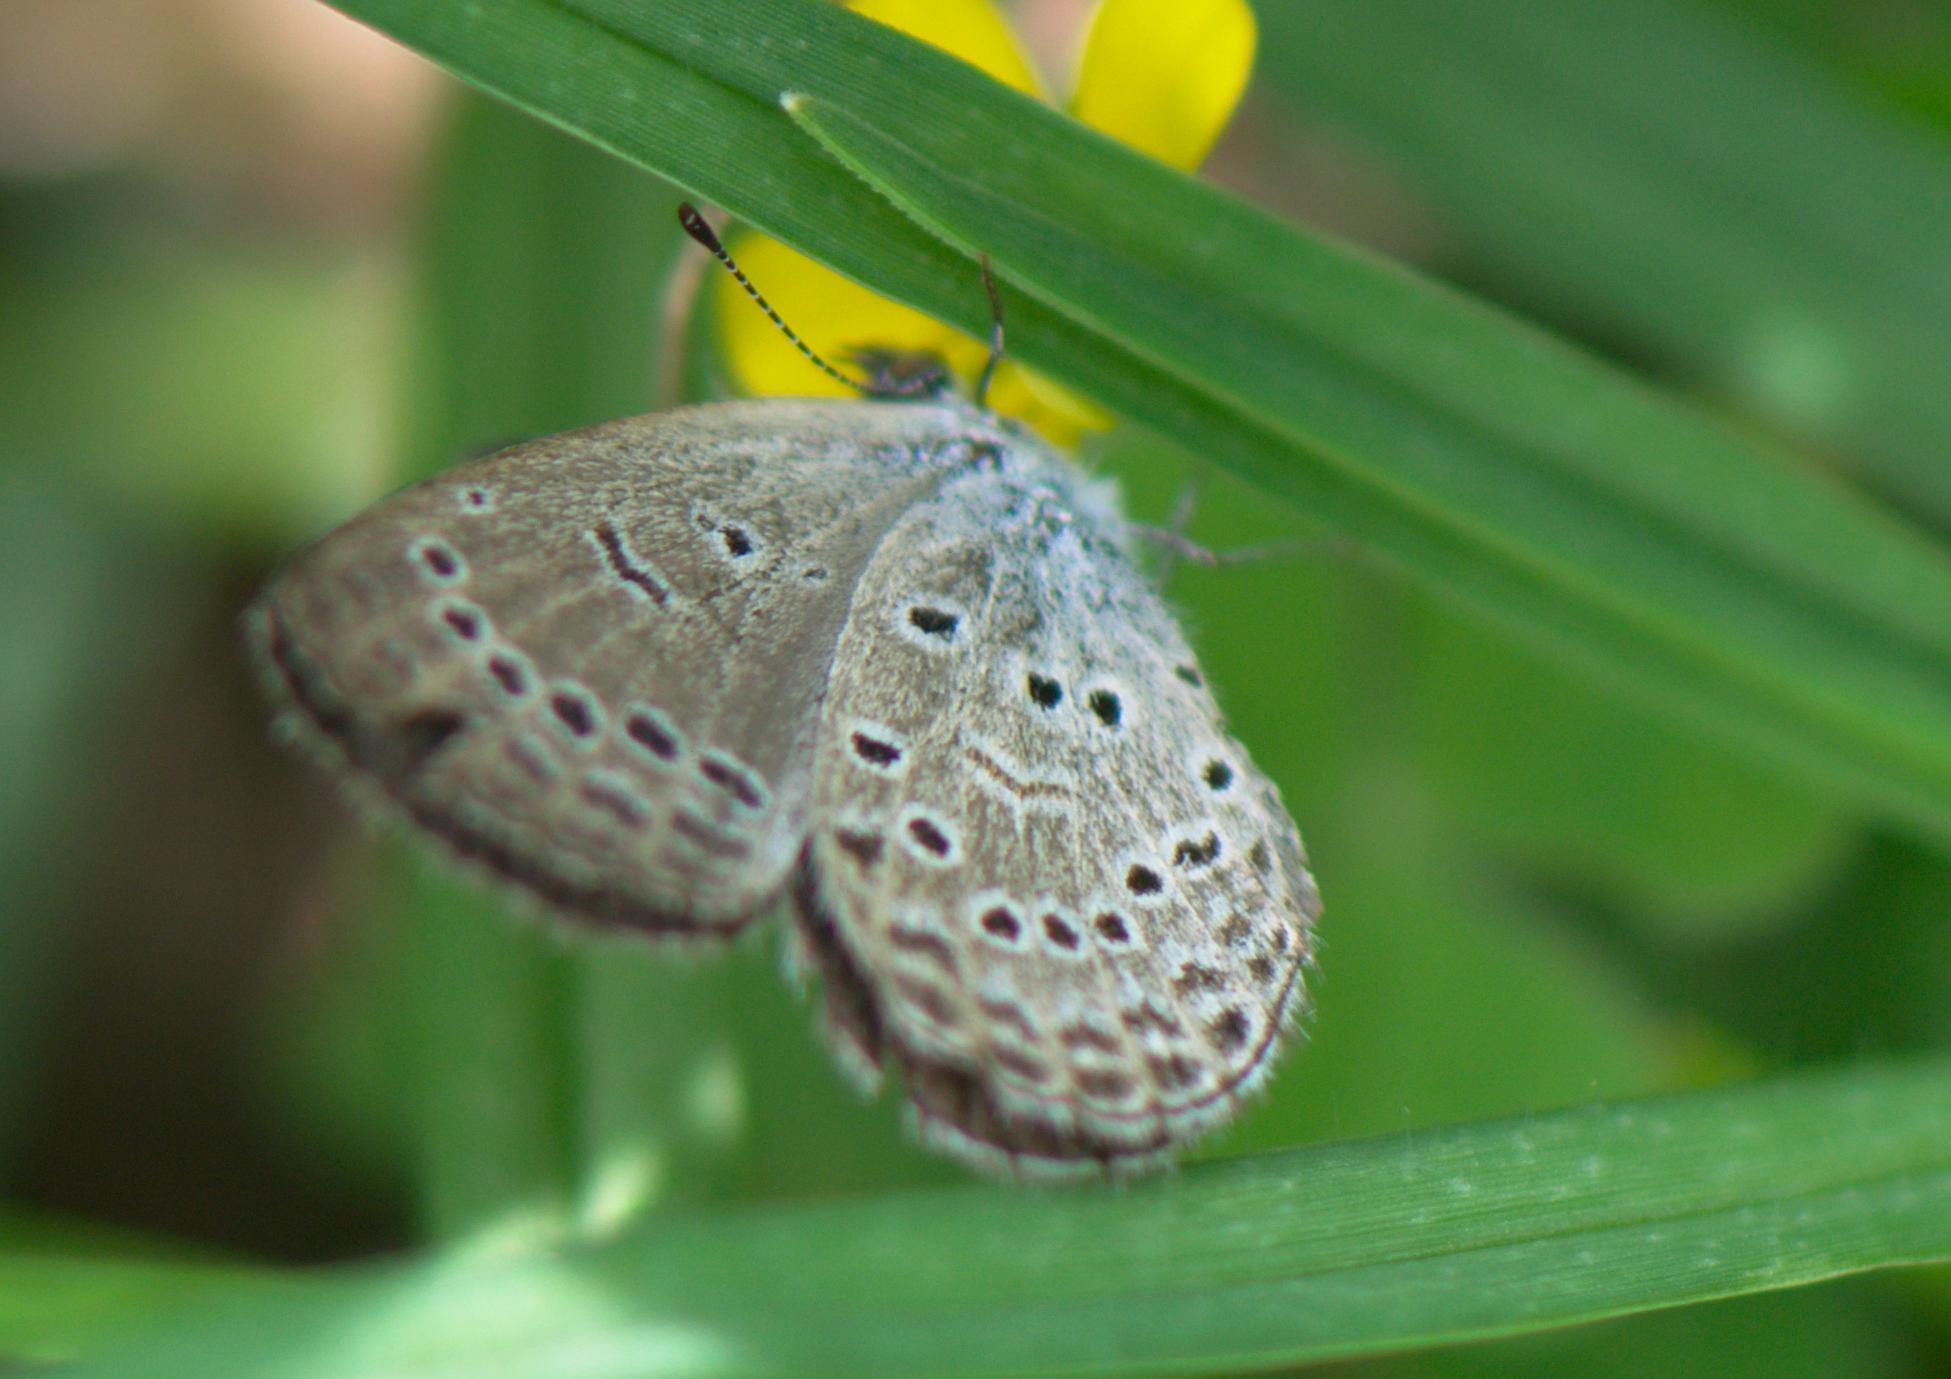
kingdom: Animalia
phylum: Arthropoda
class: Insecta
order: Lepidoptera
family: Lycaenidae
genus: Pseudozizeeria
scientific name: Pseudozizeeria maha
